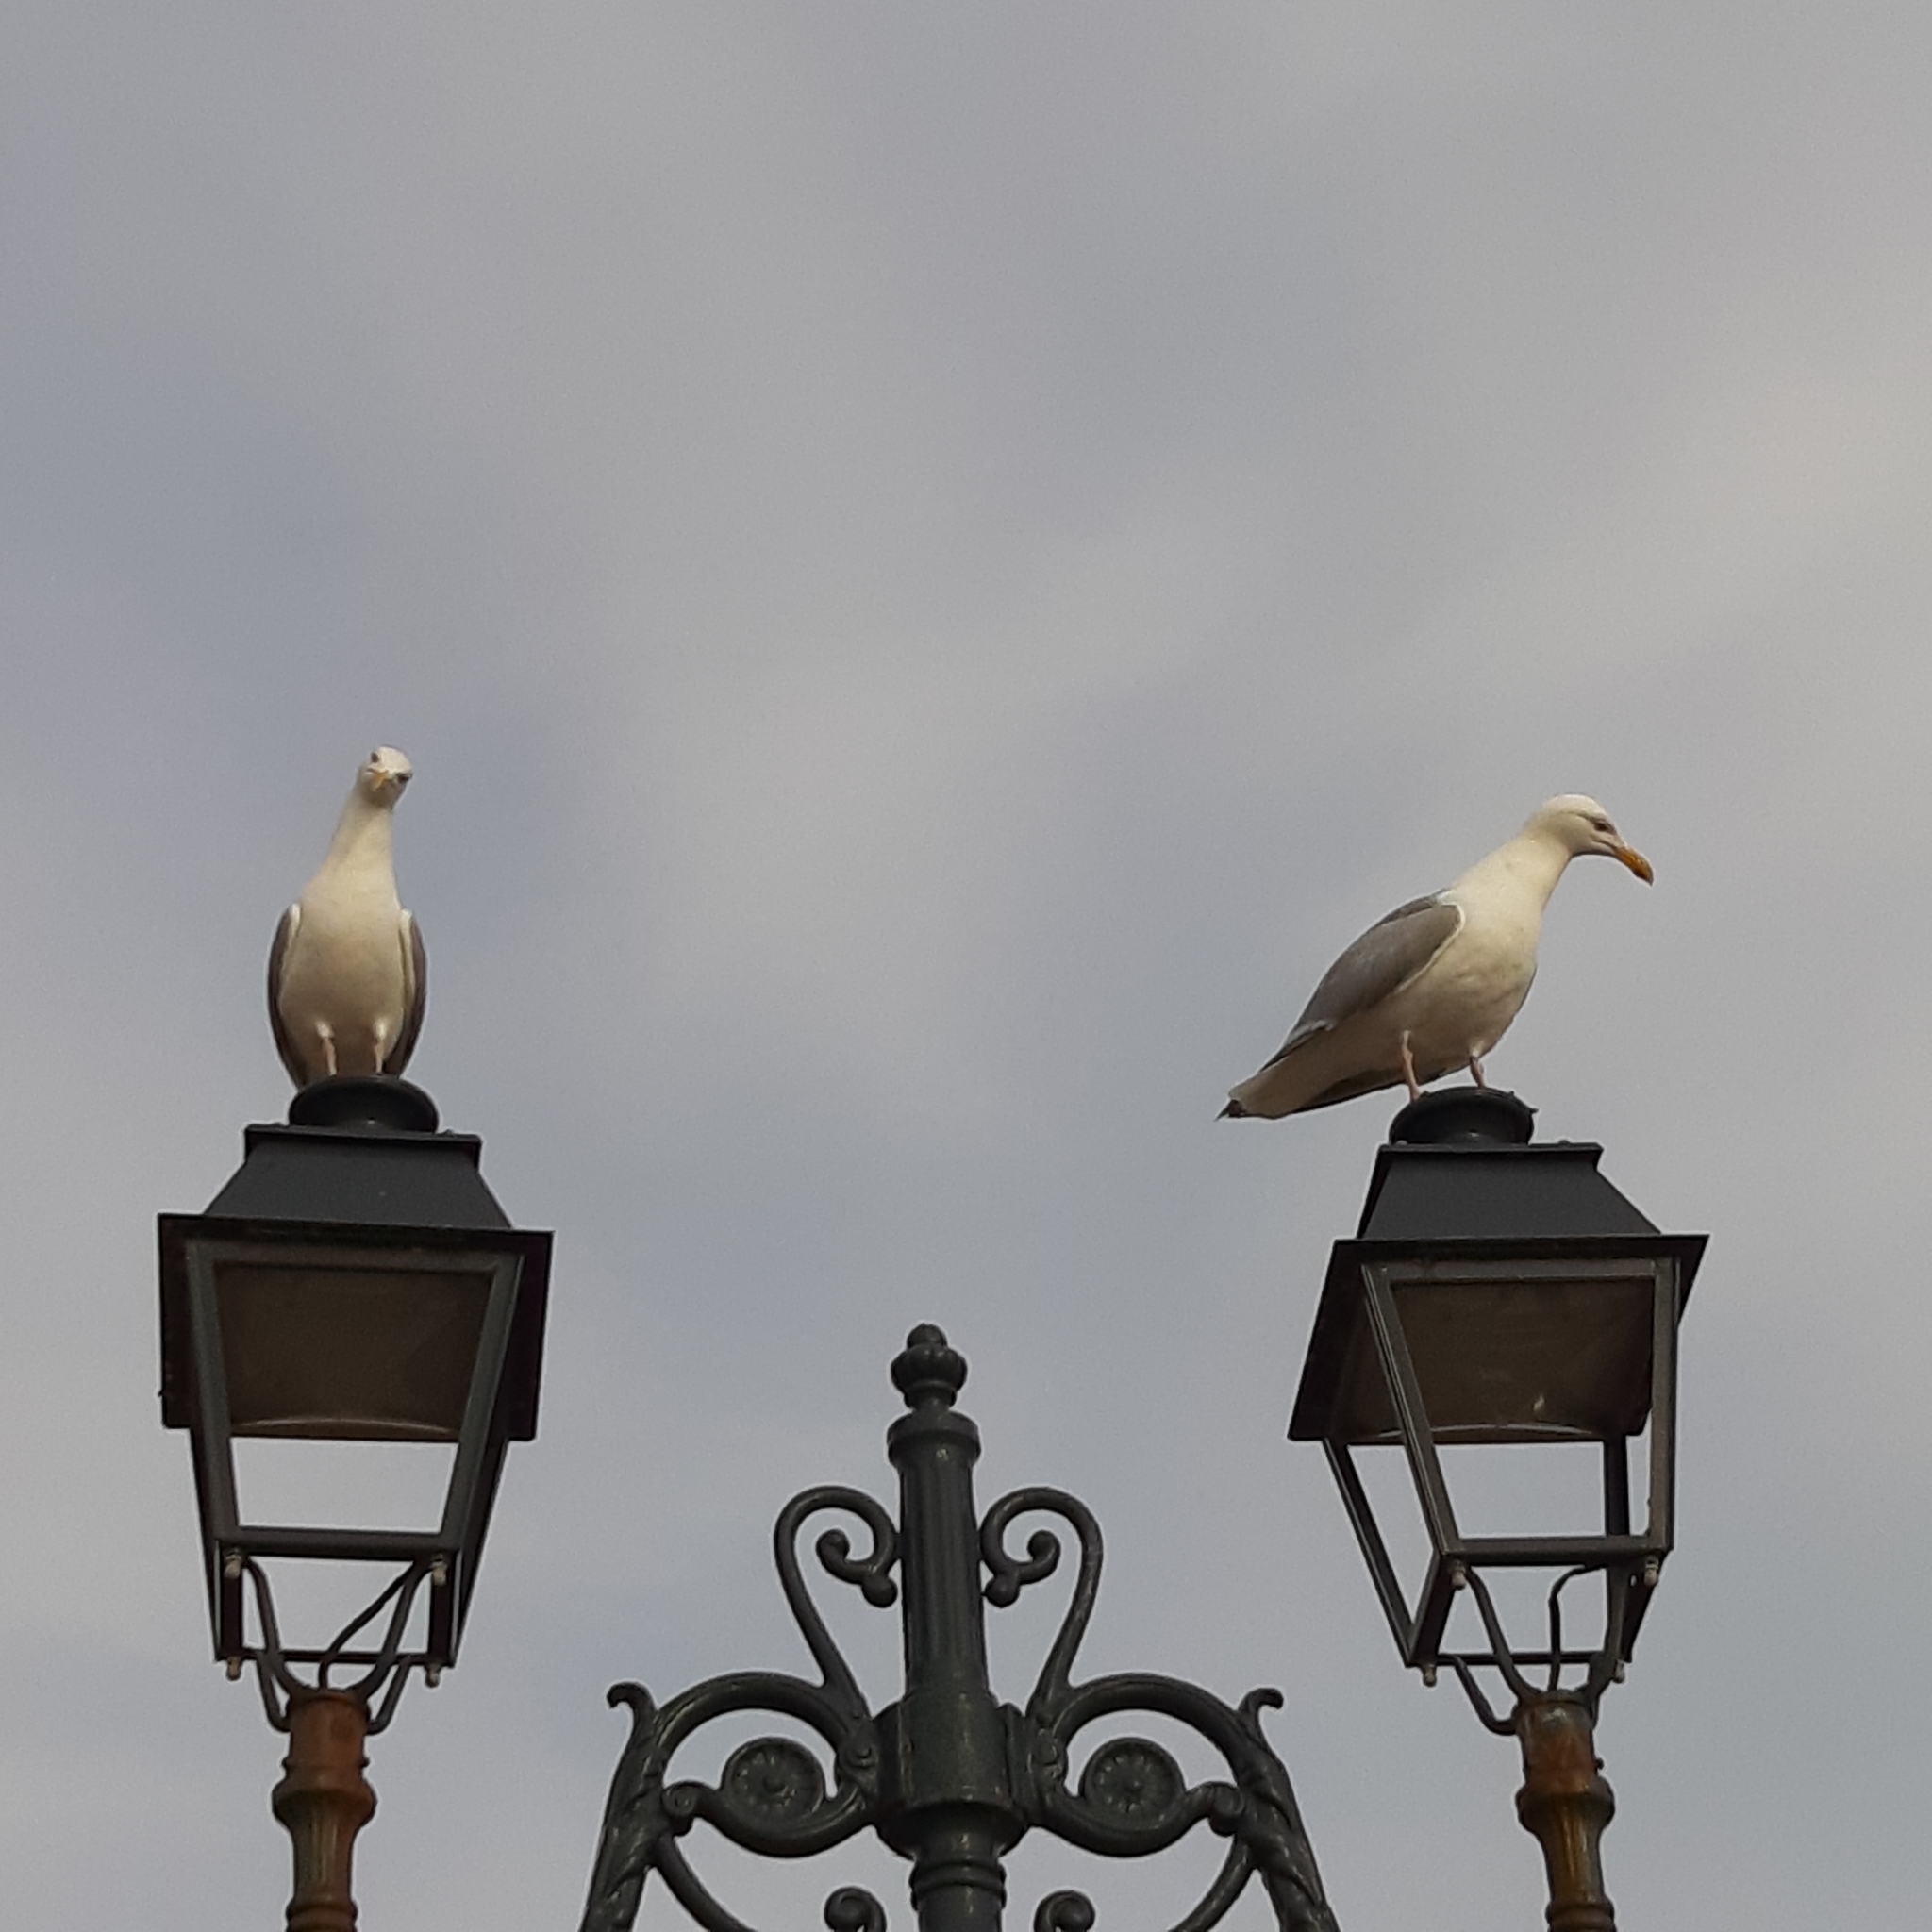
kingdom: Animalia
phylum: Chordata
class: Aves
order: Charadriiformes
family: Laridae
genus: Larus
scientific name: Larus argentatus
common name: Herring gull
